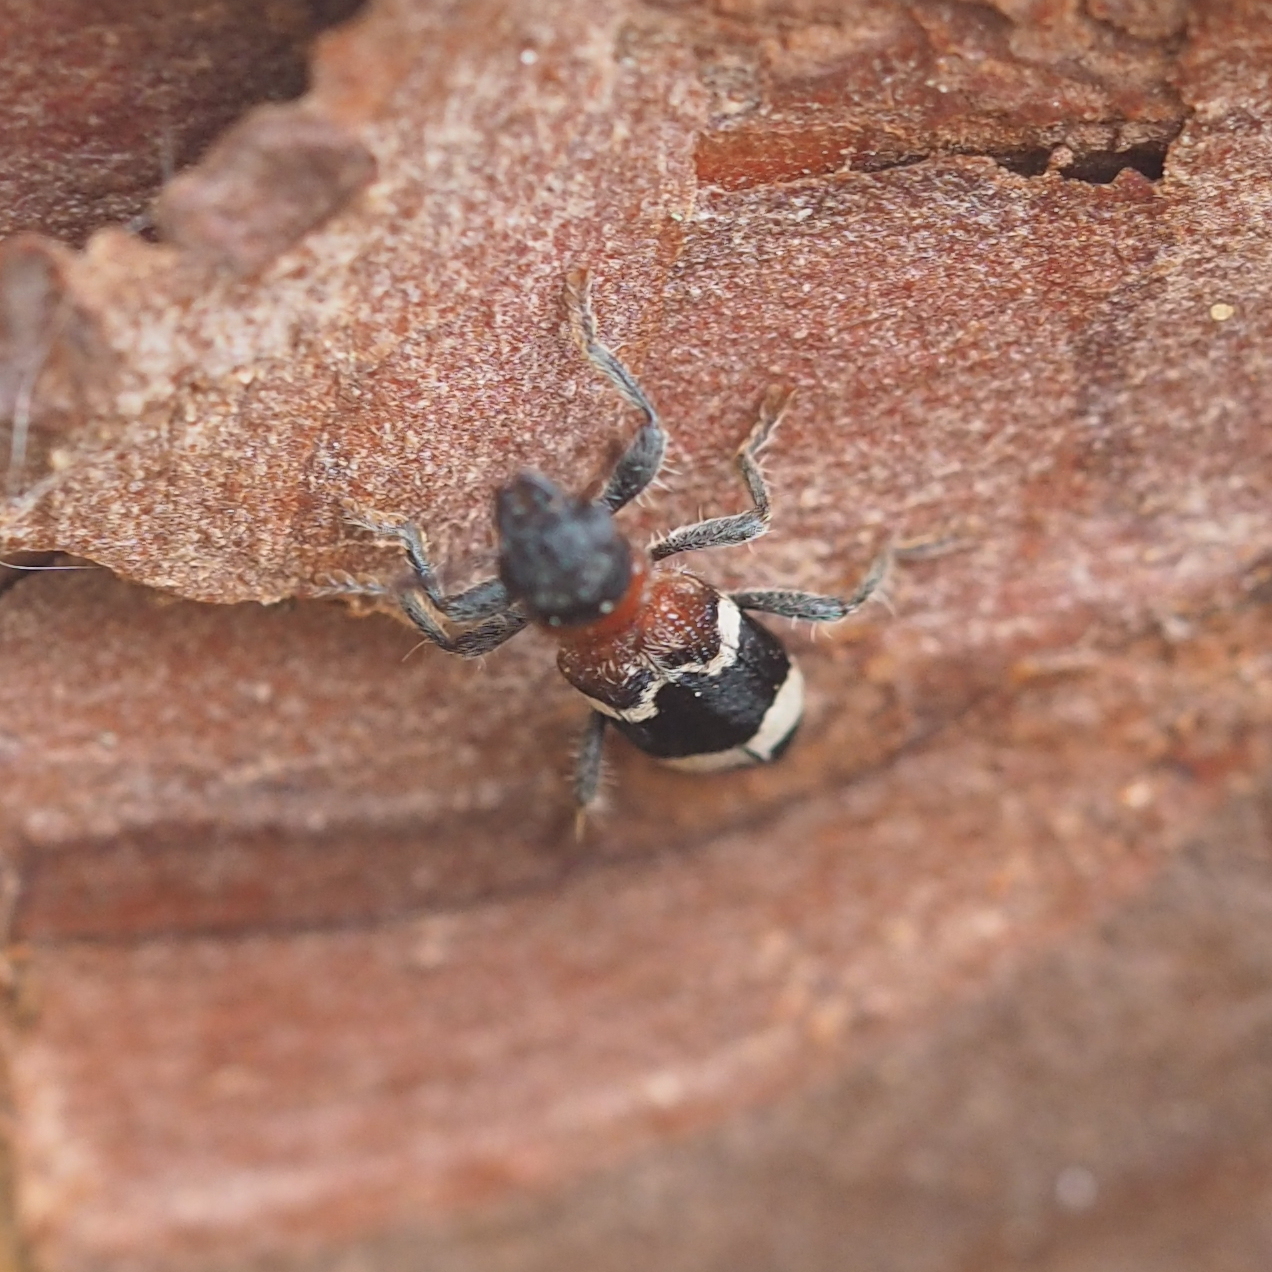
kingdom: Animalia
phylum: Arthropoda
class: Insecta
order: Coleoptera
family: Cleridae
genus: Thanasimus
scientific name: Thanasimus formicarius
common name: Ant beetle
